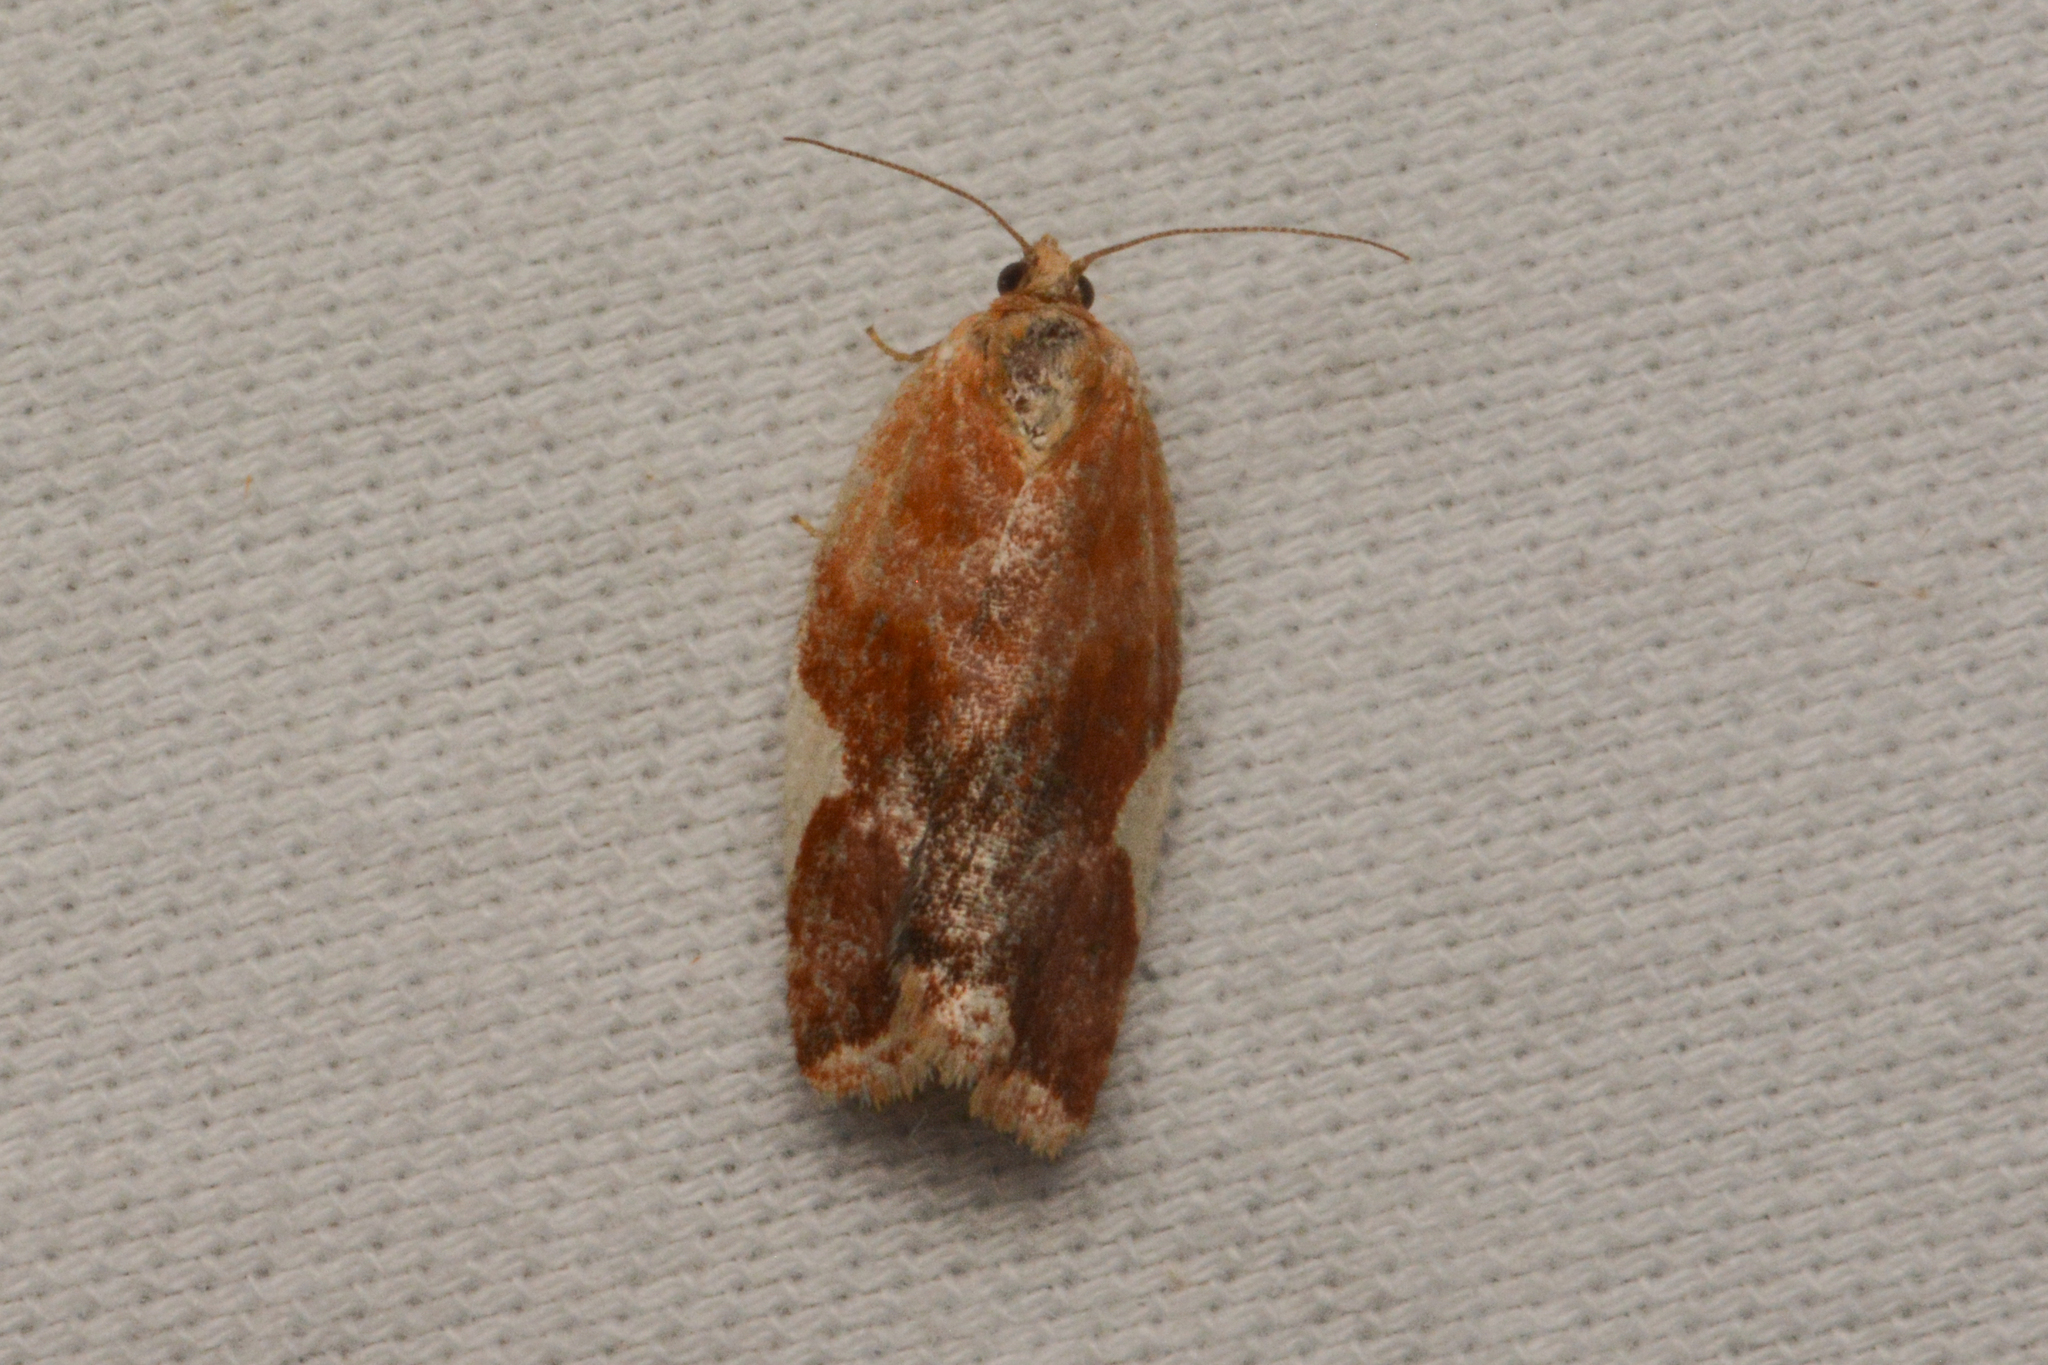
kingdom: Animalia
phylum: Arthropoda
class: Insecta
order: Lepidoptera
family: Tortricidae
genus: Clepsis
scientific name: Clepsis persicana
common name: White triangle tortrix
